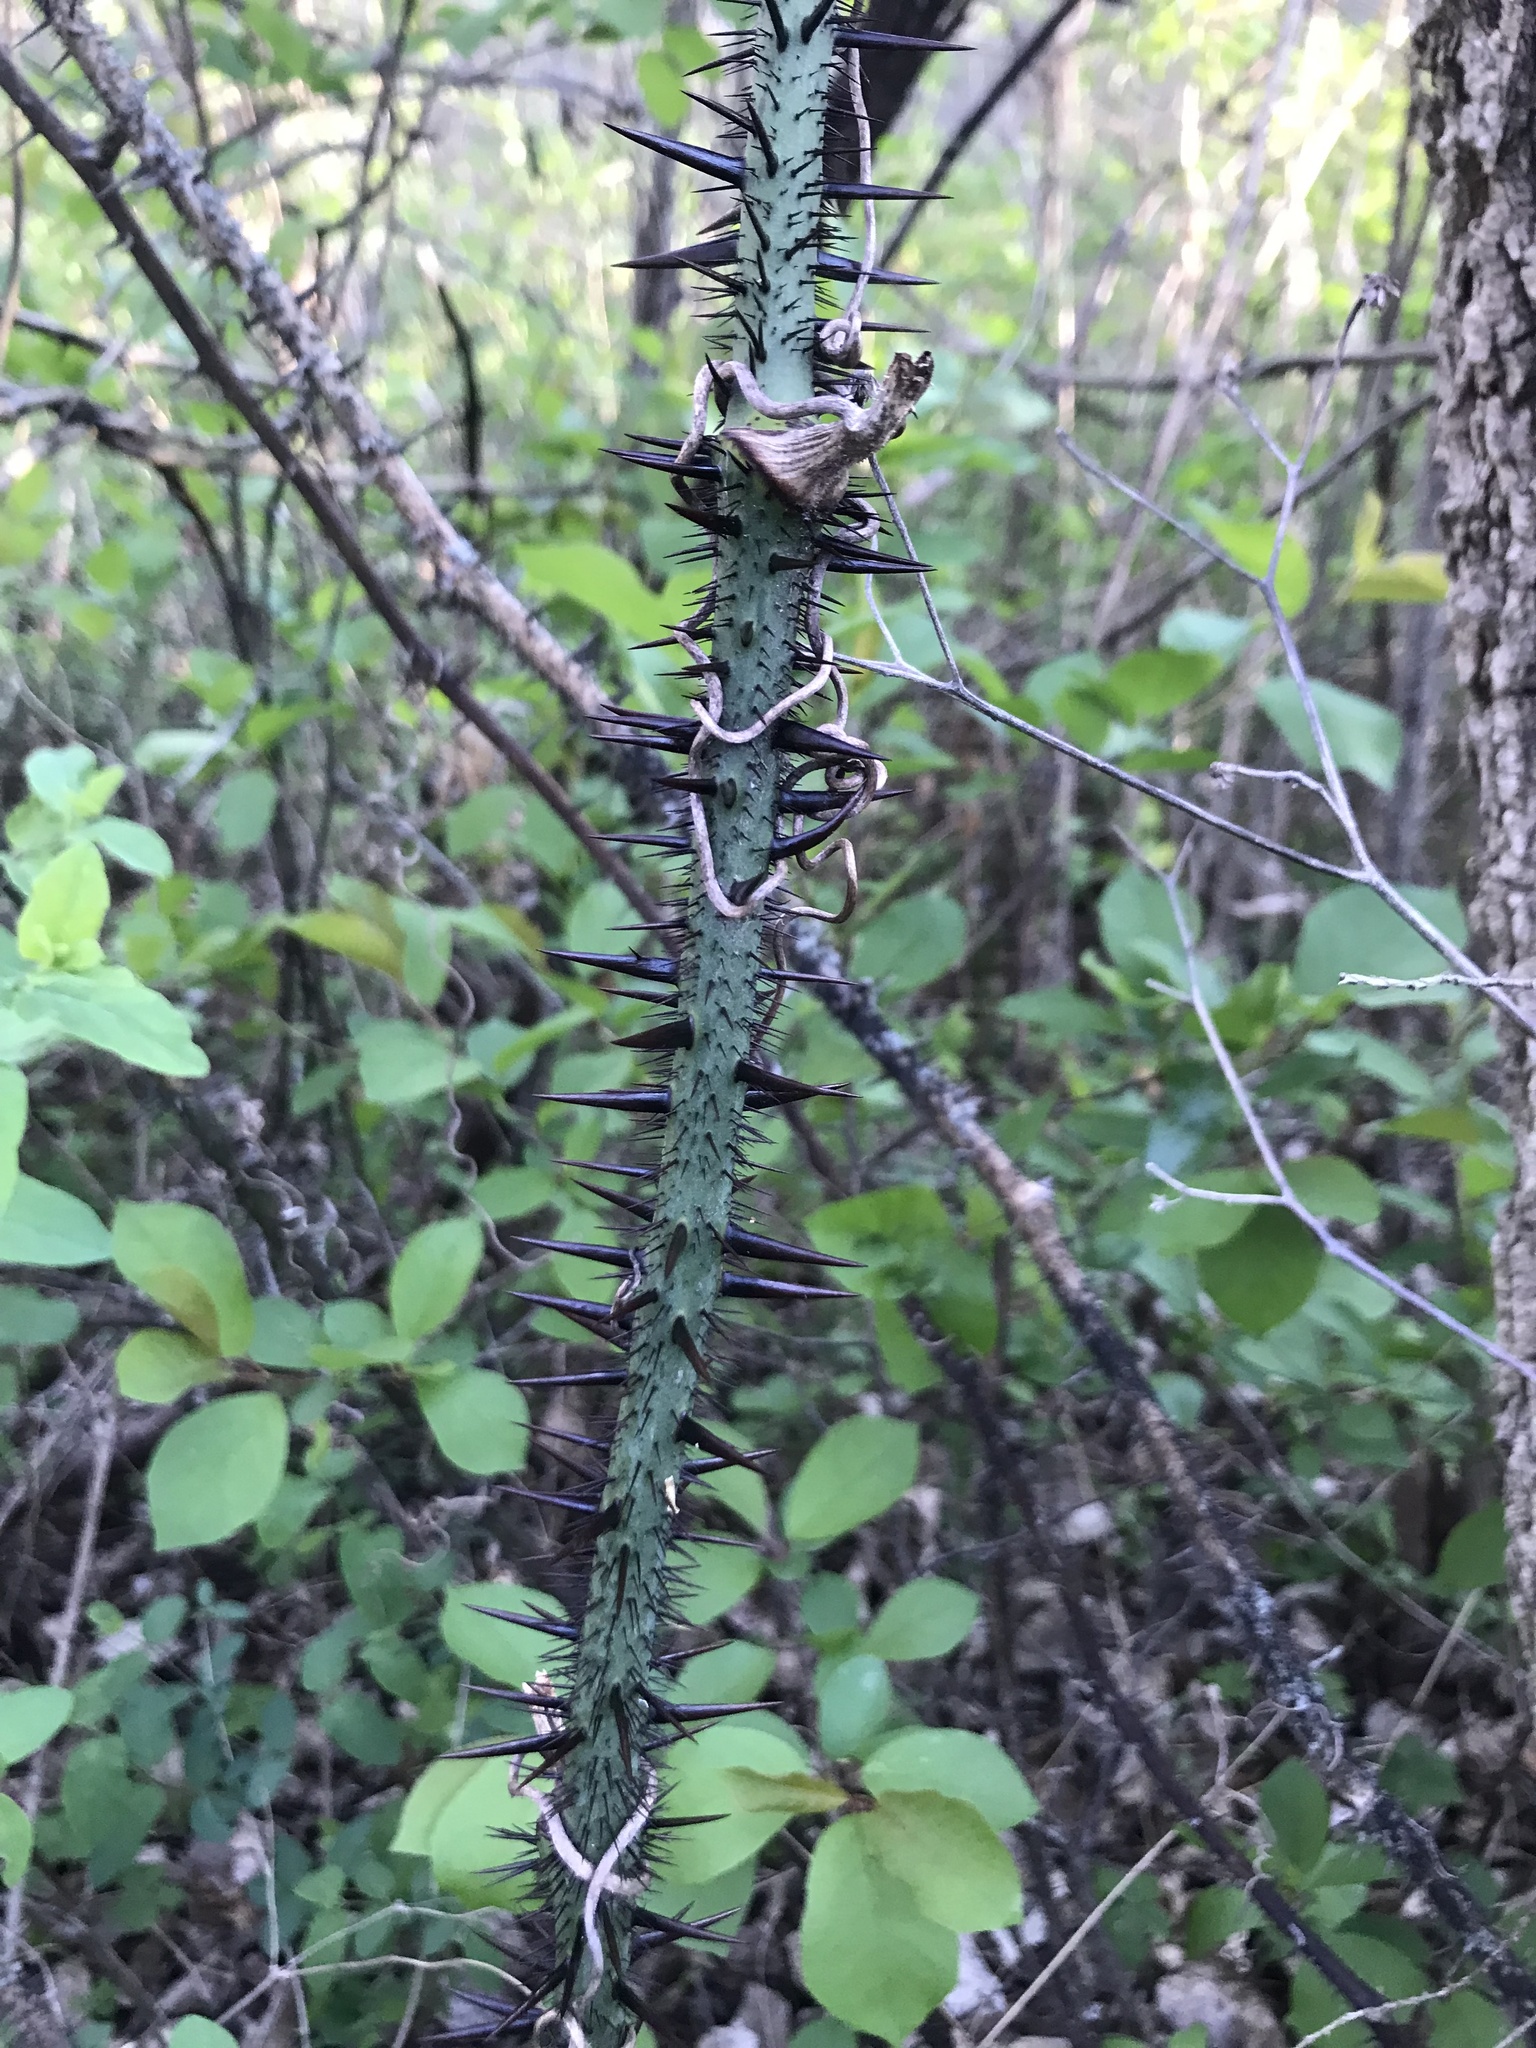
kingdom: Plantae
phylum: Tracheophyta
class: Liliopsida
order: Liliales
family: Smilacaceae
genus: Smilax
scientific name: Smilax tamnoides
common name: Hellfetter
